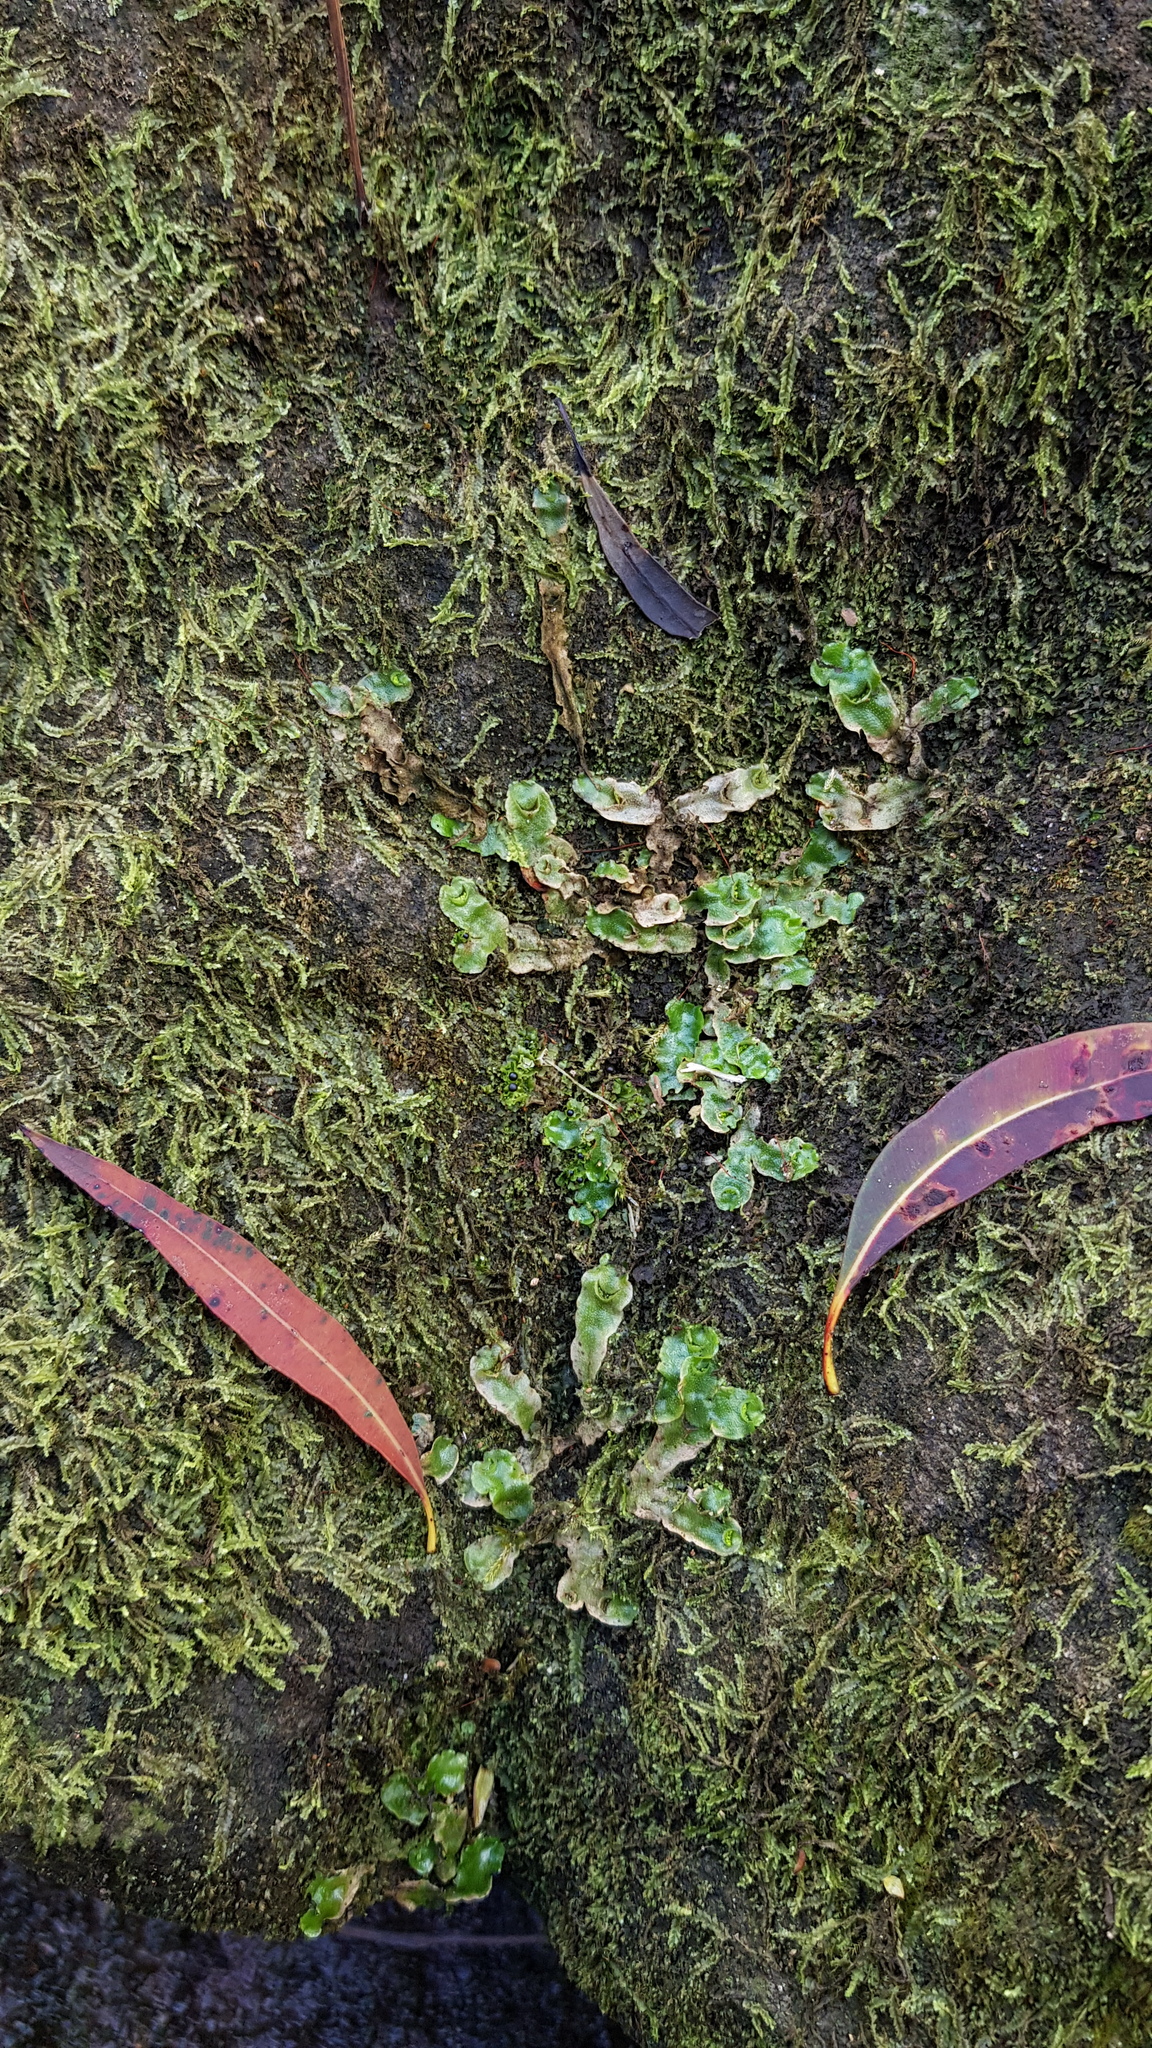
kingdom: Plantae
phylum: Marchantiophyta
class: Marchantiopsida
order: Lunulariales
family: Lunulariaceae
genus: Lunularia
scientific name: Lunularia cruciata
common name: Crescent-cup liverwort
